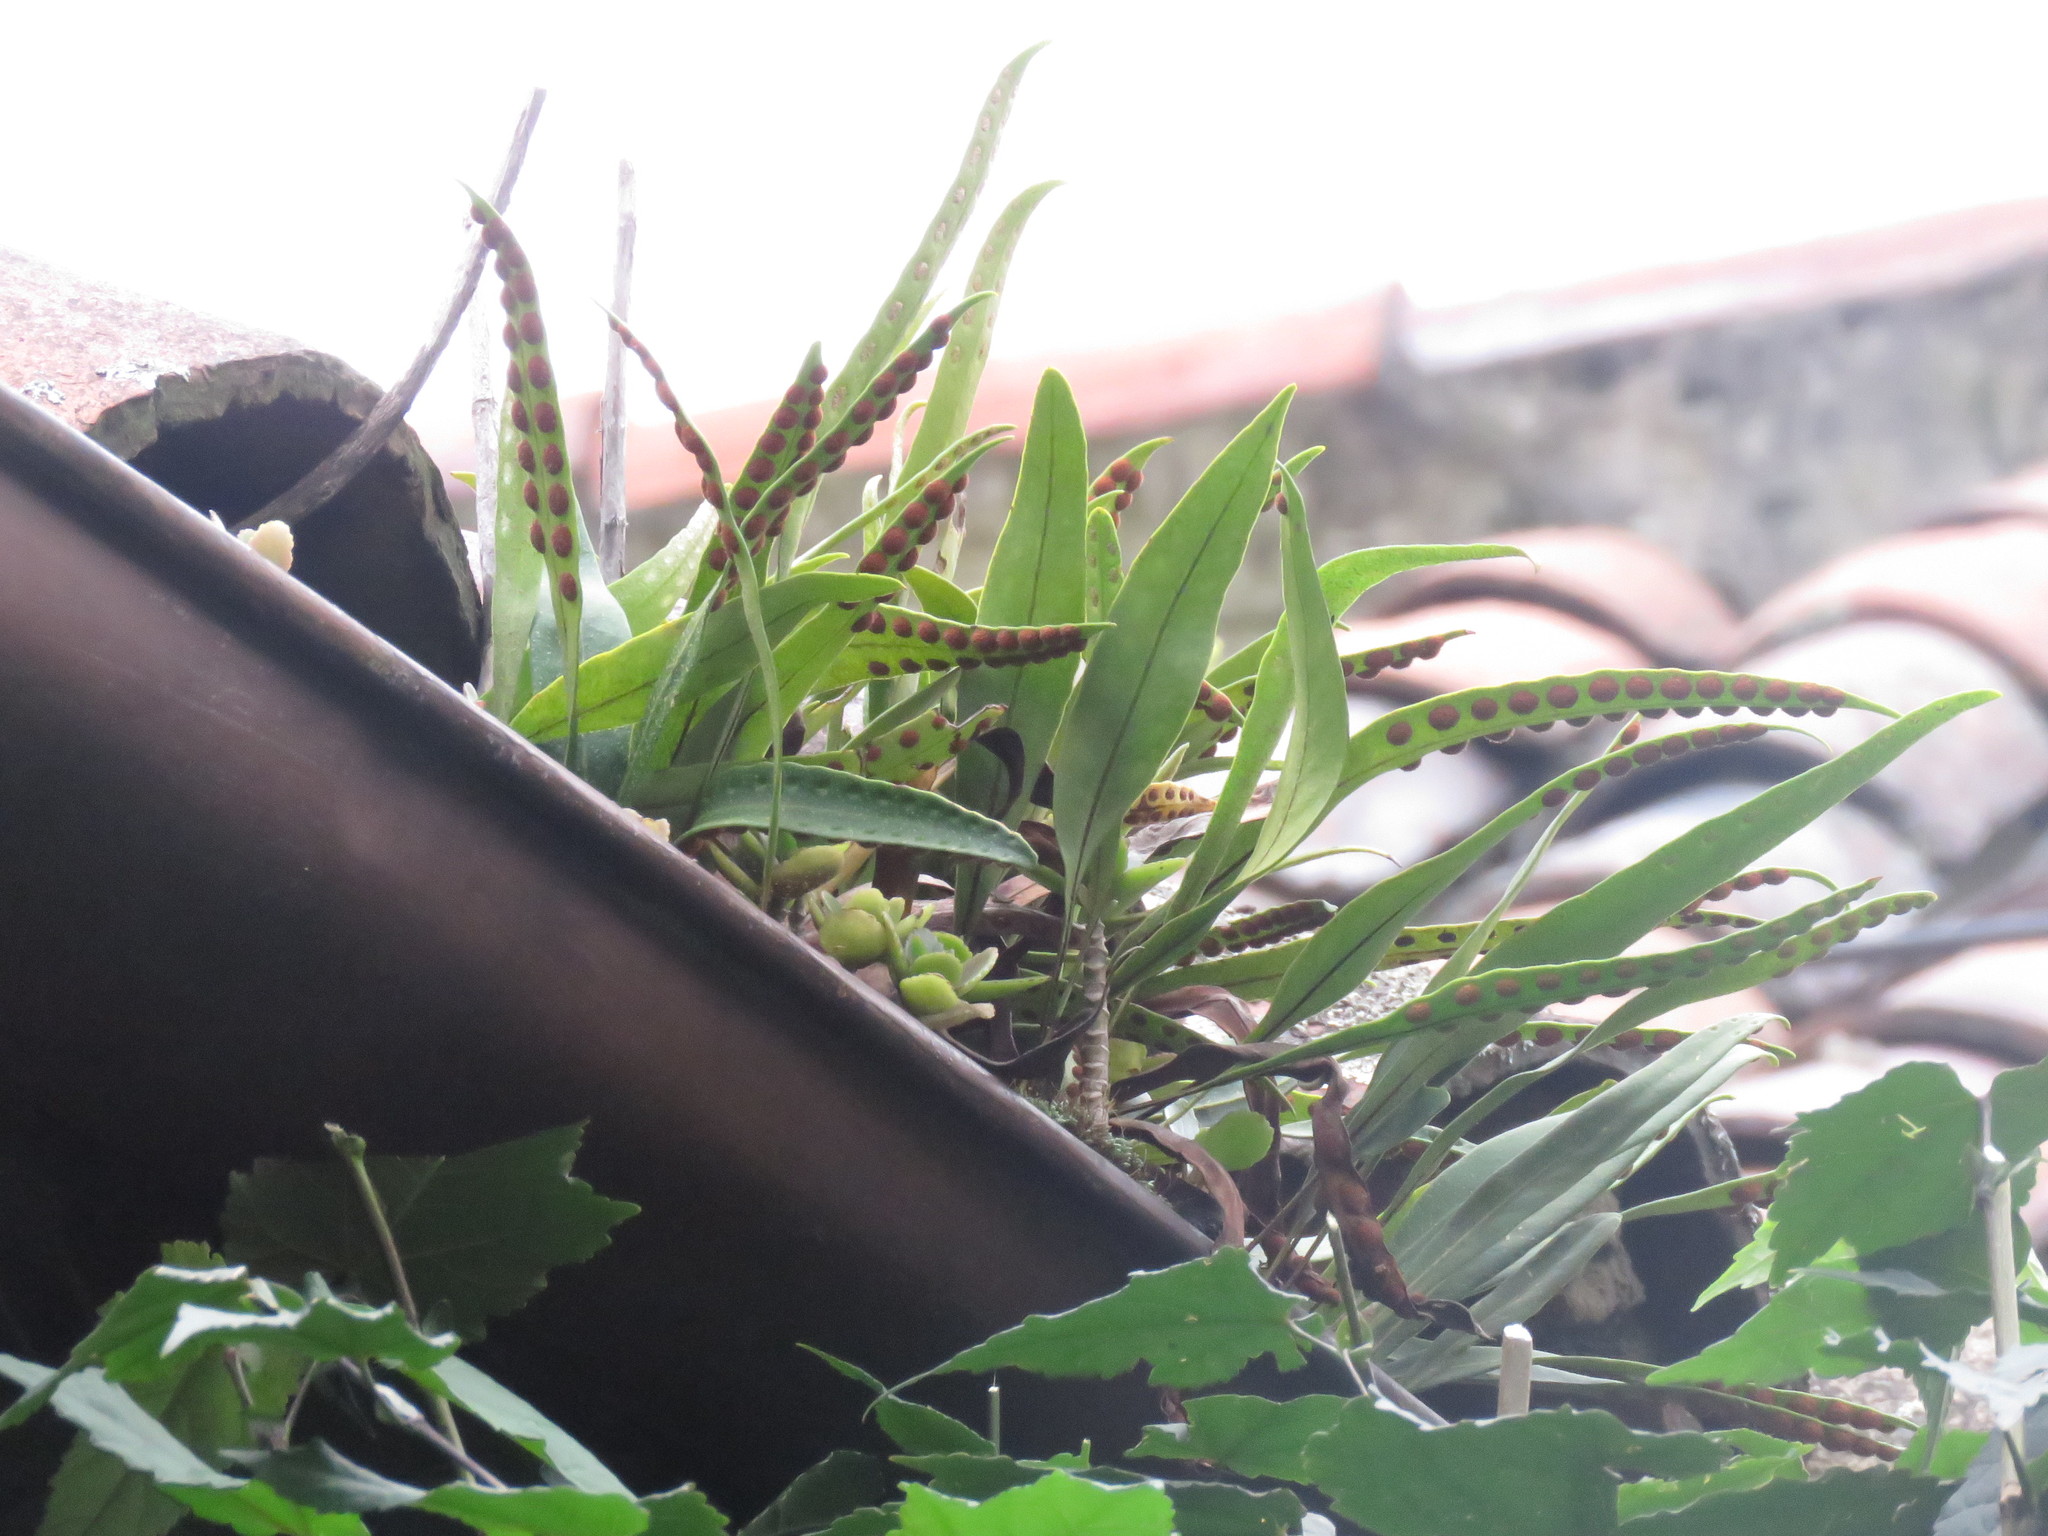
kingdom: Plantae
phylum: Tracheophyta
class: Polypodiopsida
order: Polypodiales
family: Polypodiaceae
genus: Pleopeltis
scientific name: Pleopeltis macrocarpa
